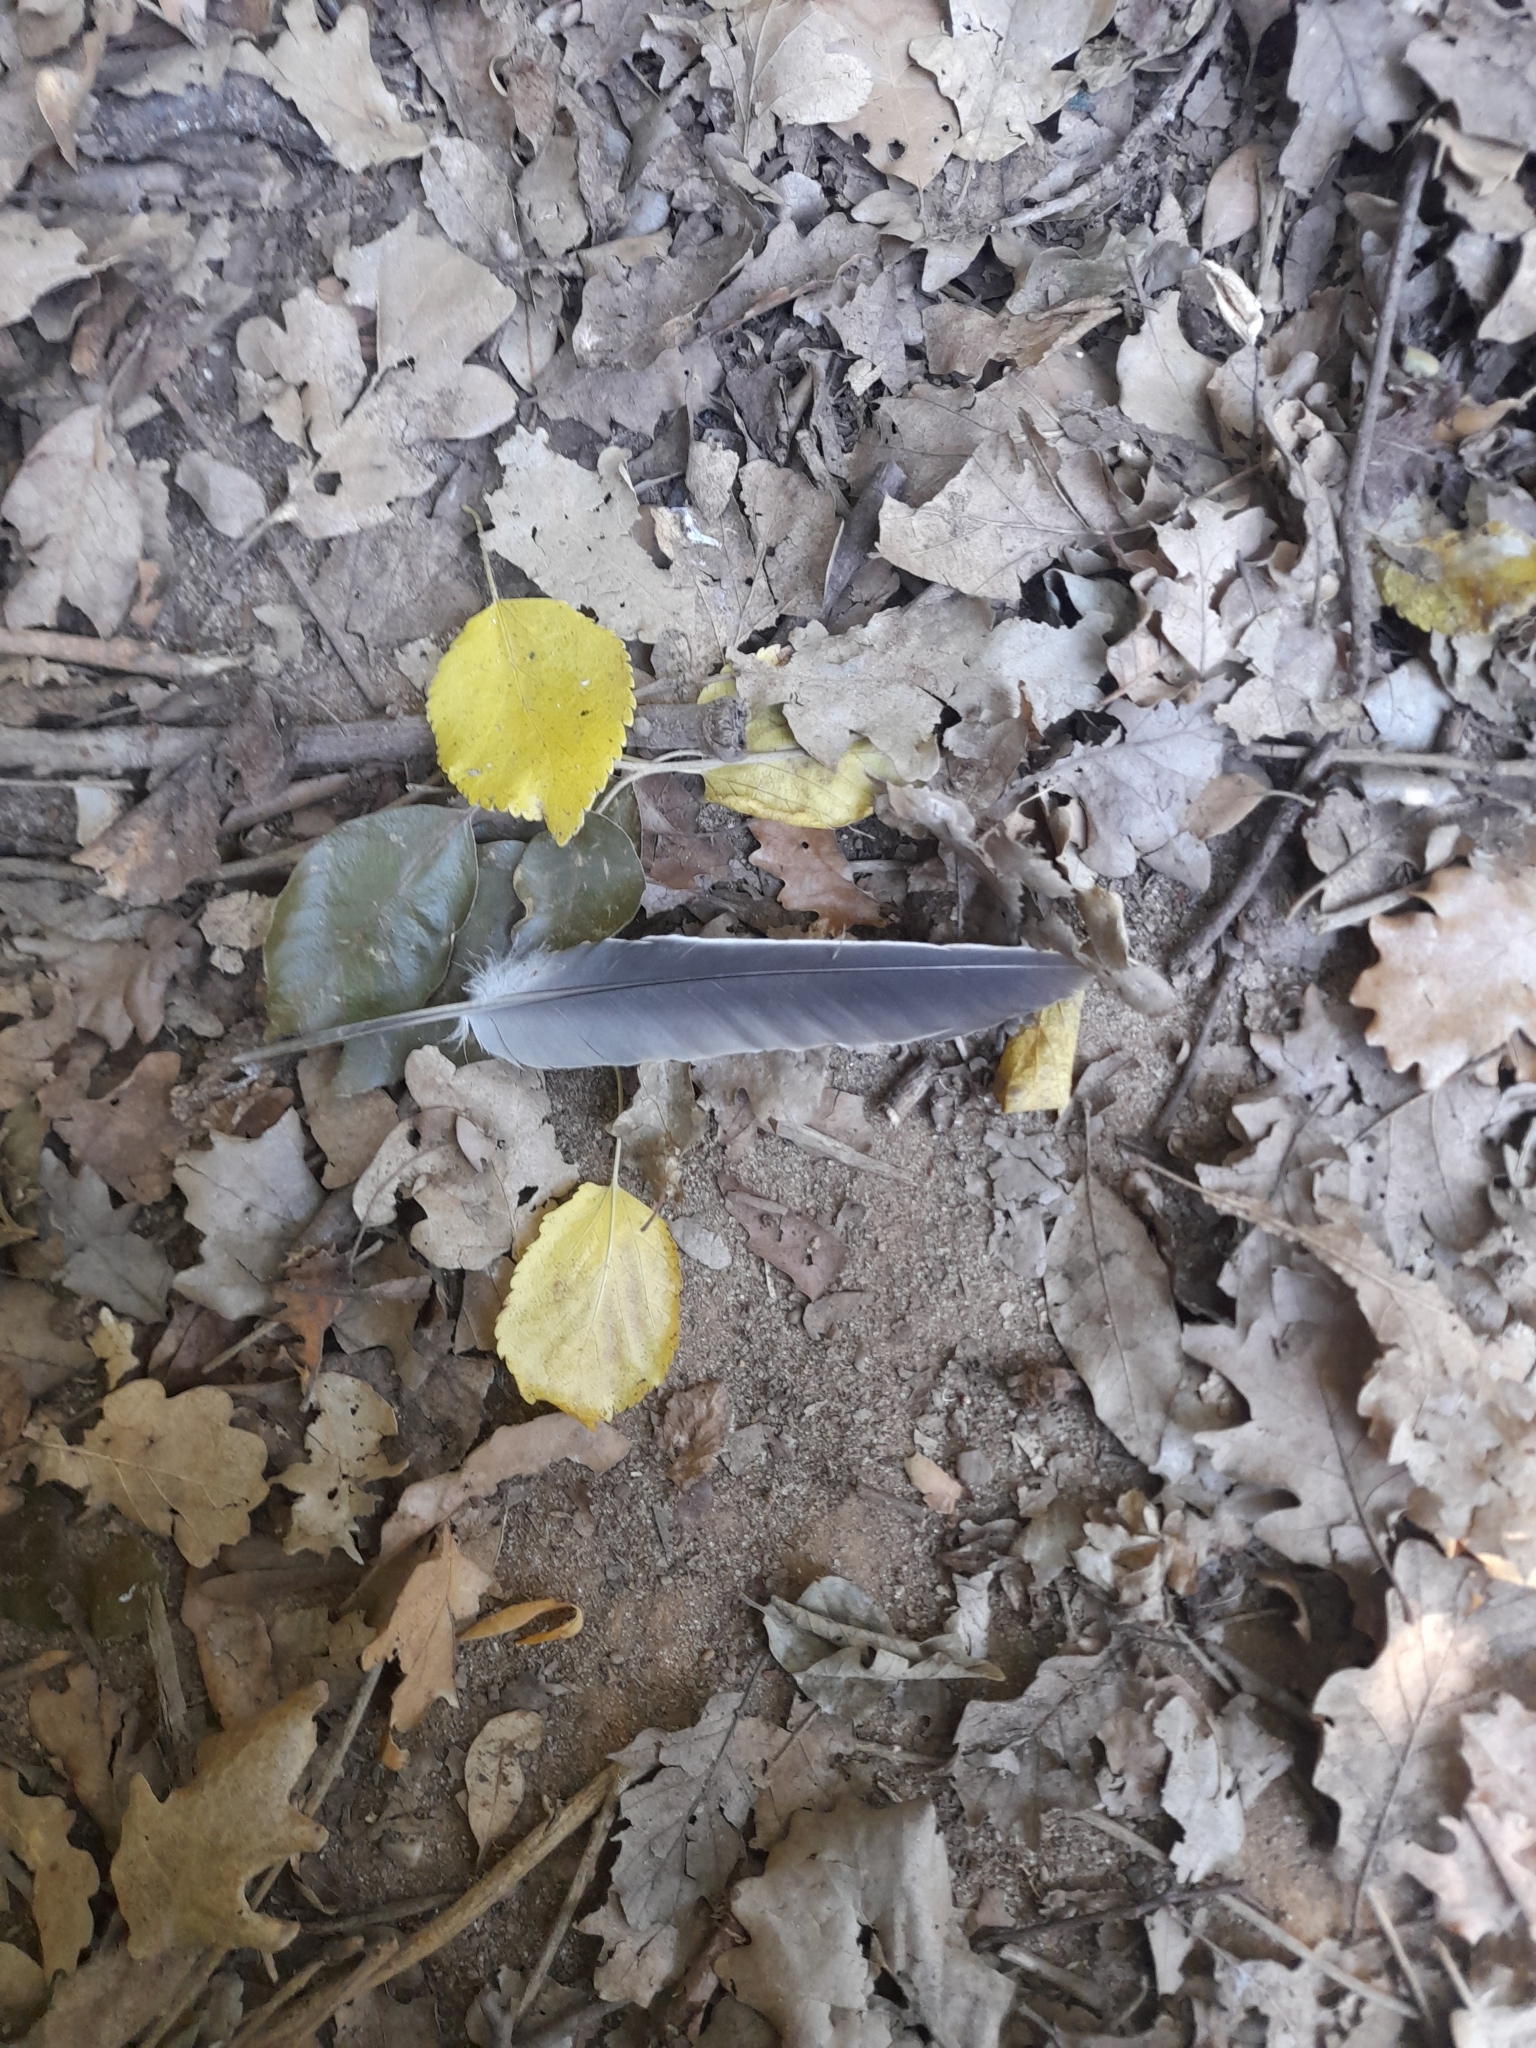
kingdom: Animalia
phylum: Chordata
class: Aves
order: Columbiformes
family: Columbidae
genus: Columba
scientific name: Columba palumbus
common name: Common wood pigeon
